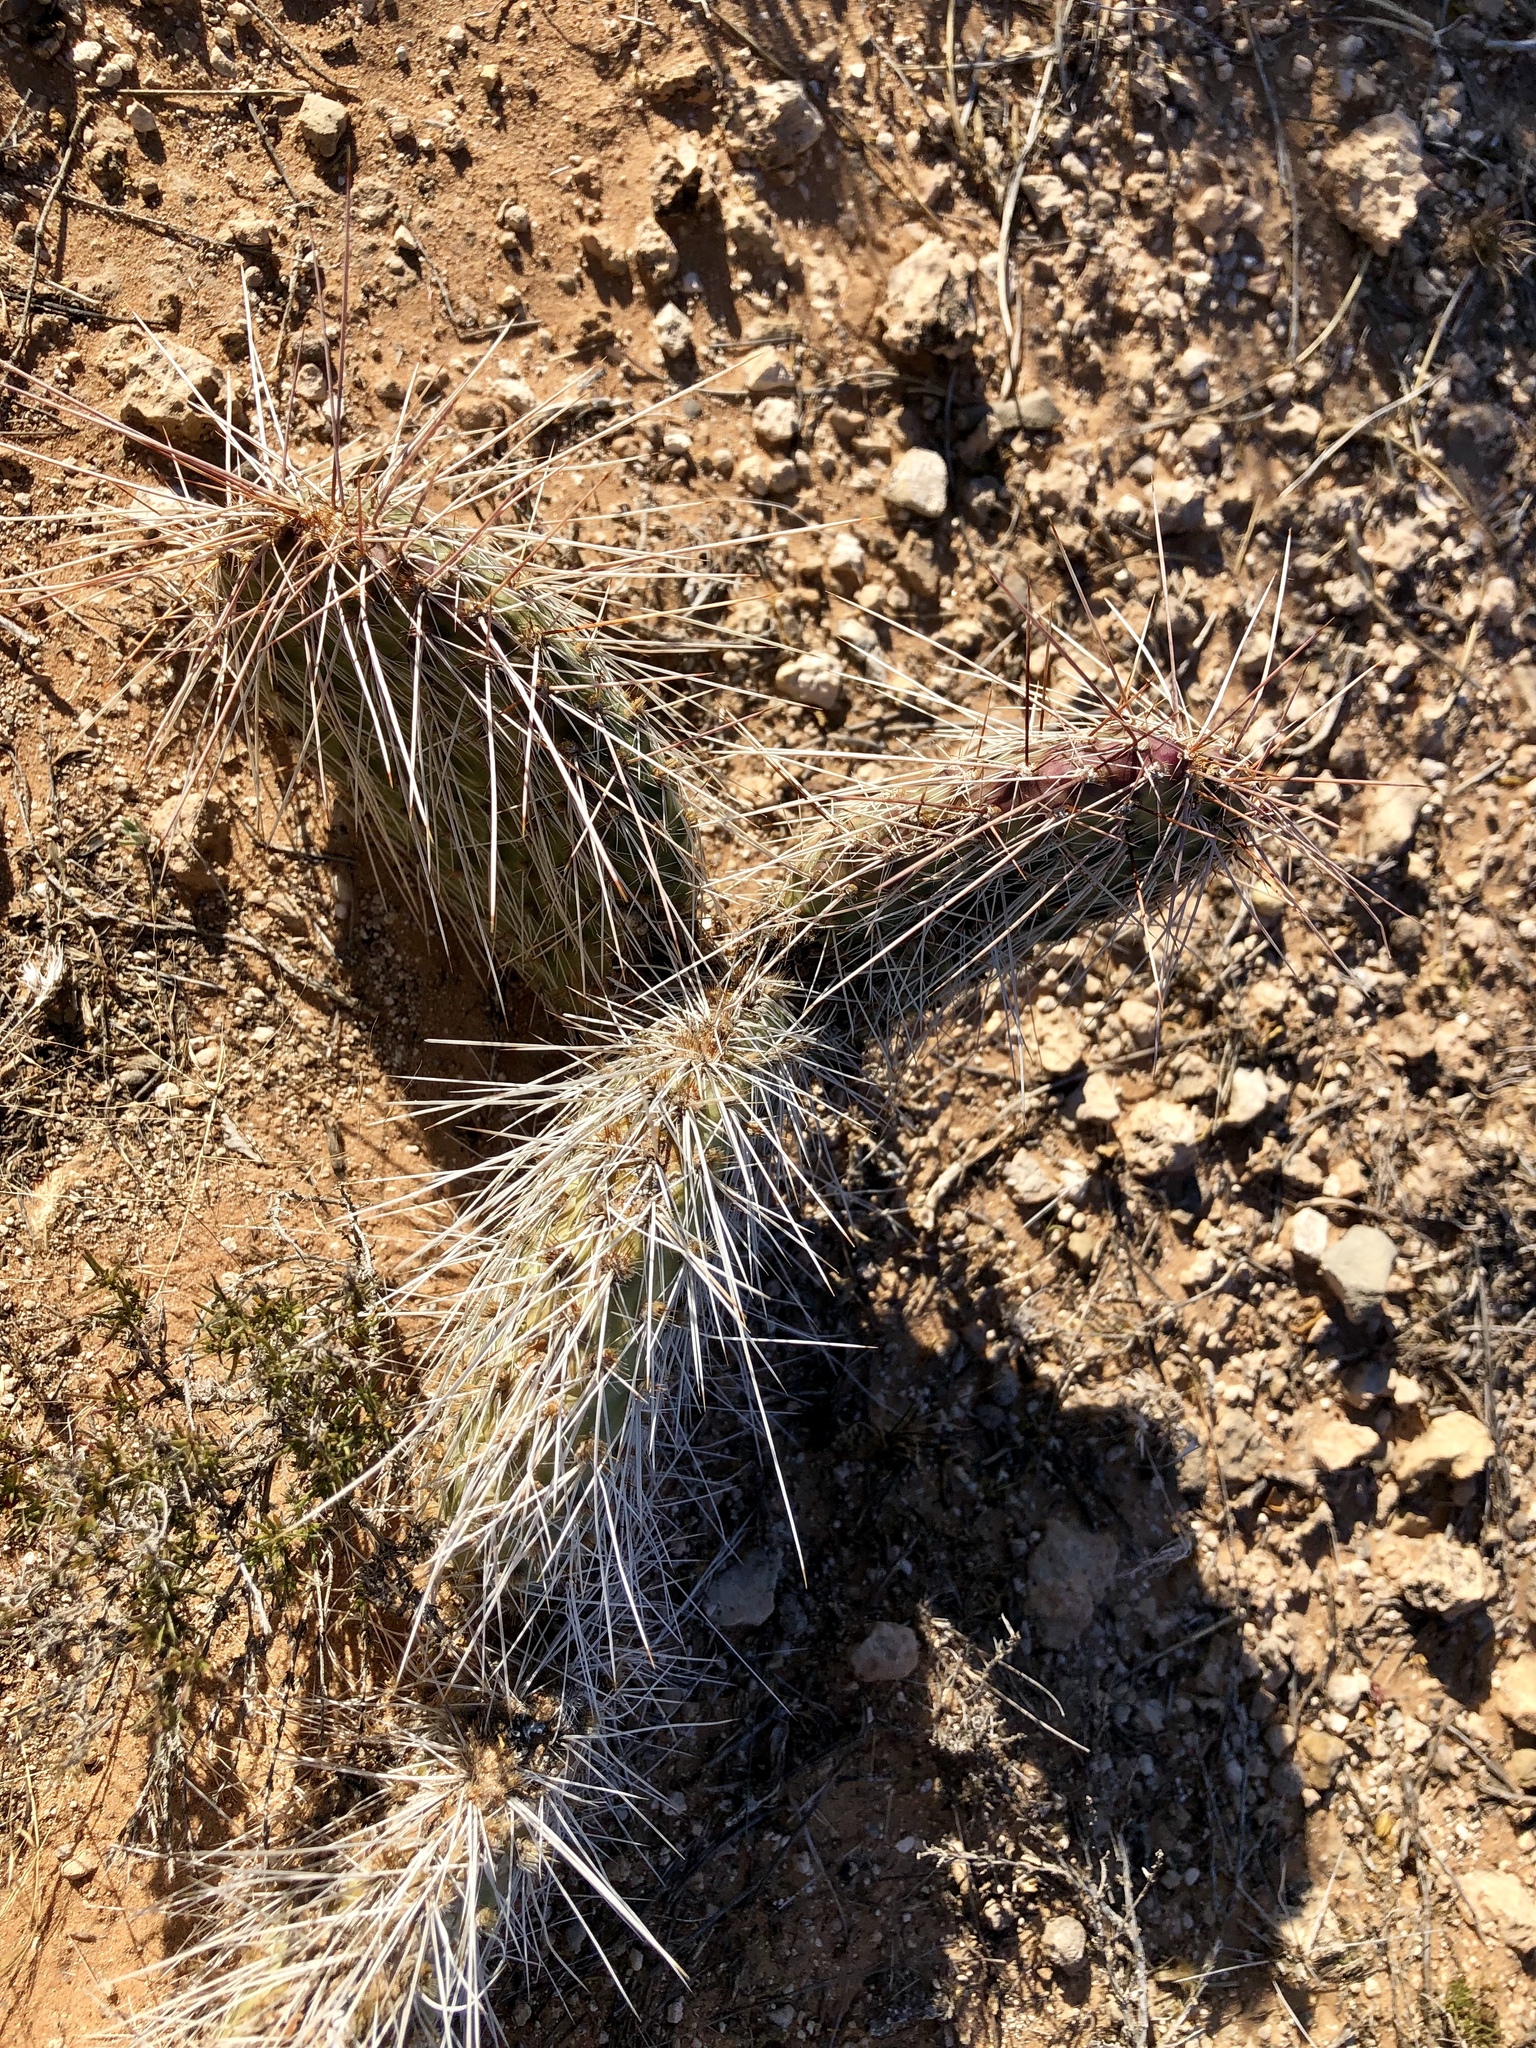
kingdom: Plantae
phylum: Tracheophyta
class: Magnoliopsida
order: Caryophyllales
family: Cactaceae
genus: Opuntia
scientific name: Opuntia polyacantha
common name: Plains prickly-pear
